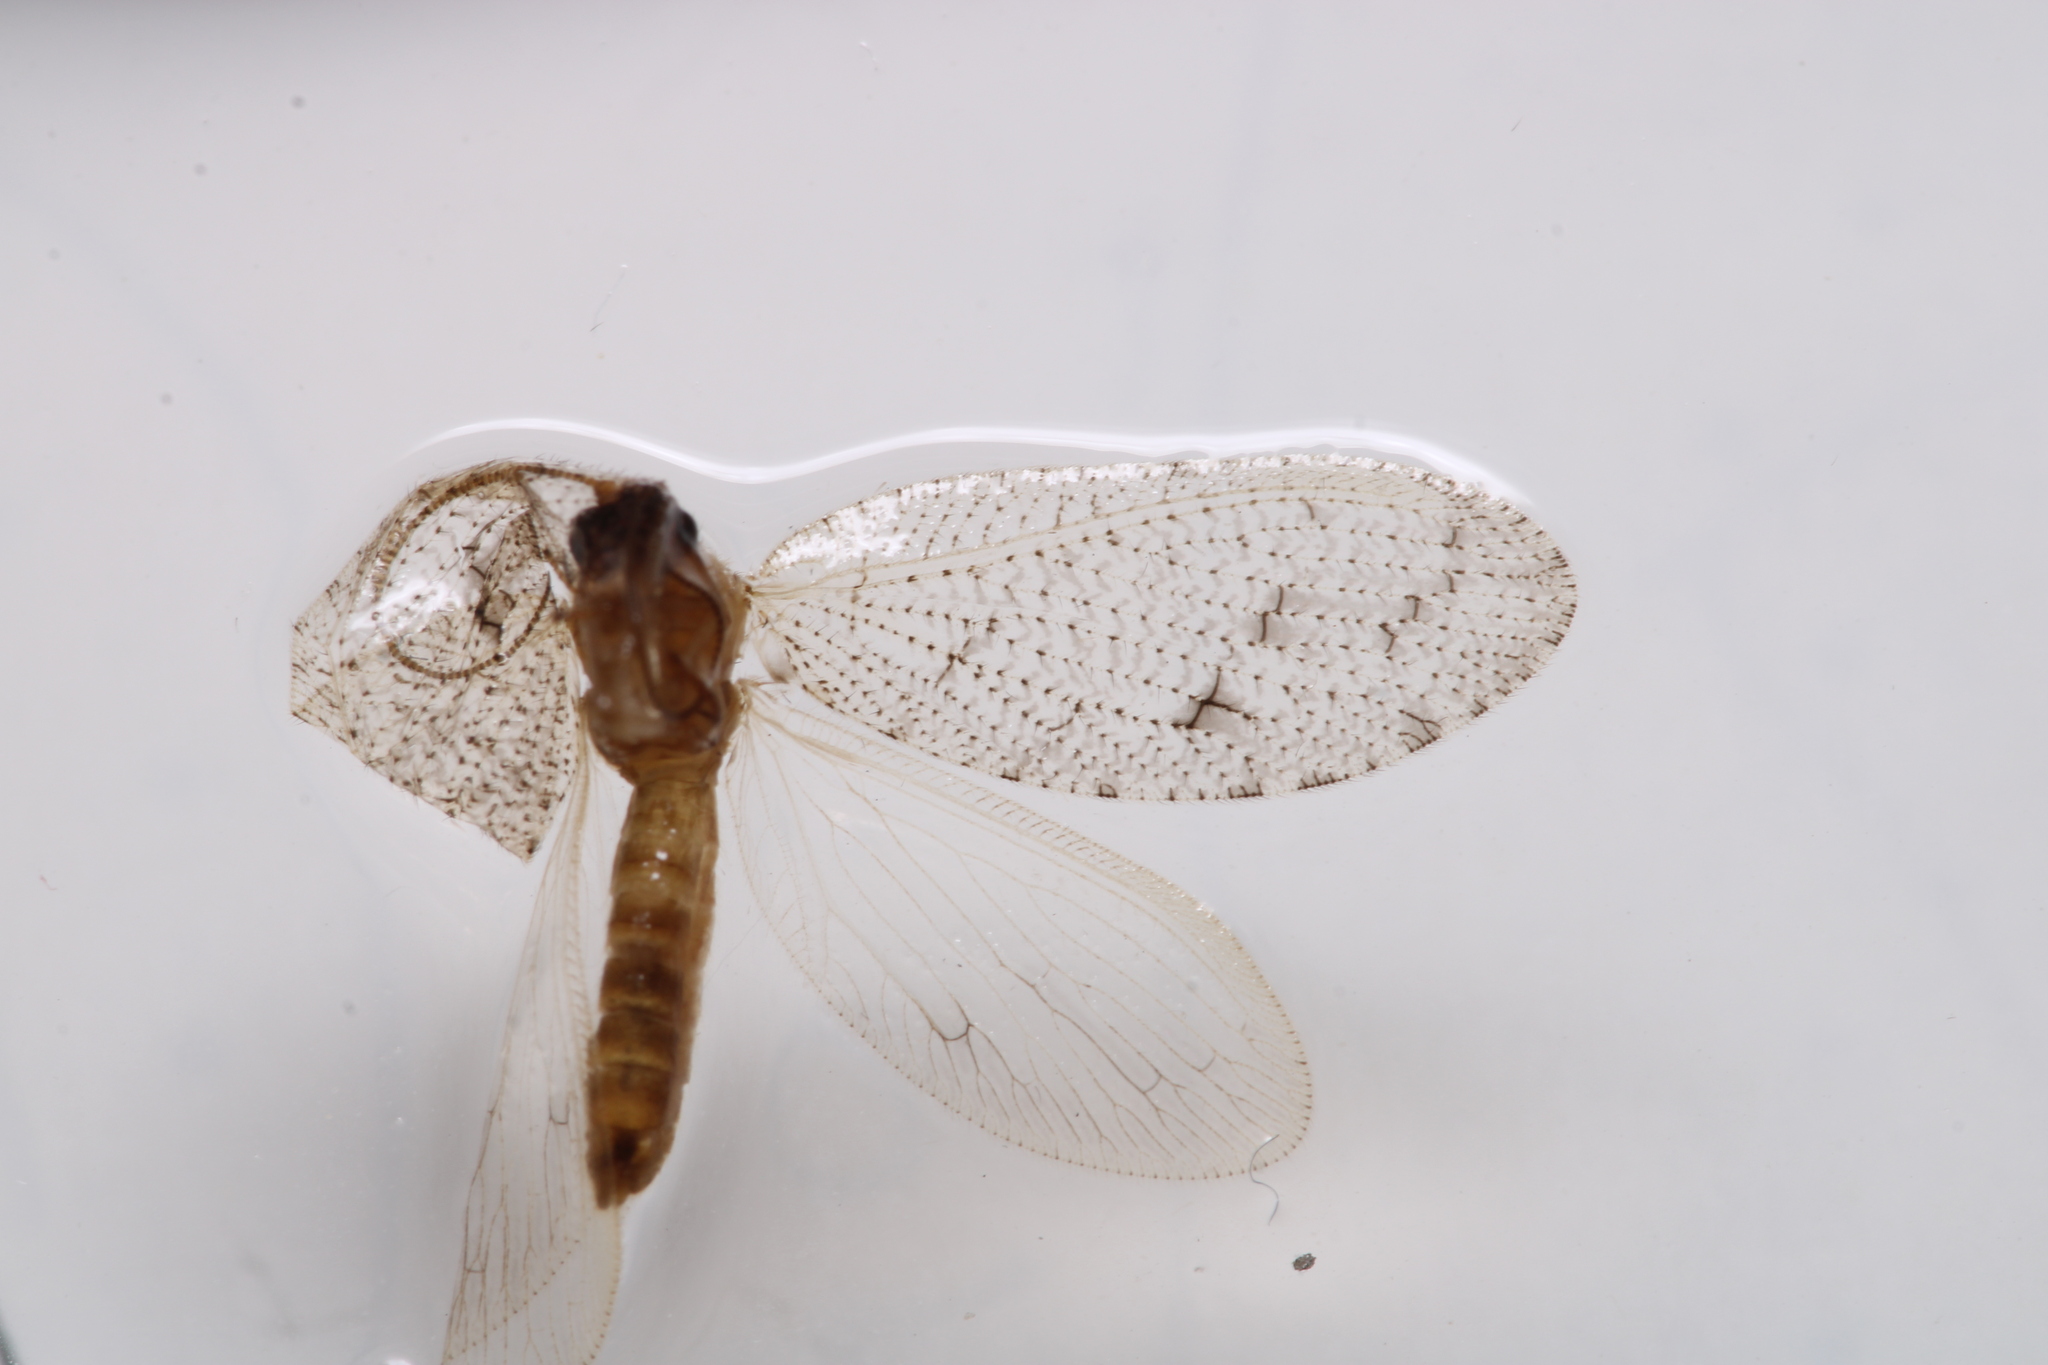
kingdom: Animalia
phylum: Arthropoda
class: Insecta
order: Neuroptera
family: Hemerobiidae
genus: Wesmaelius
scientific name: Wesmaelius mortoni
